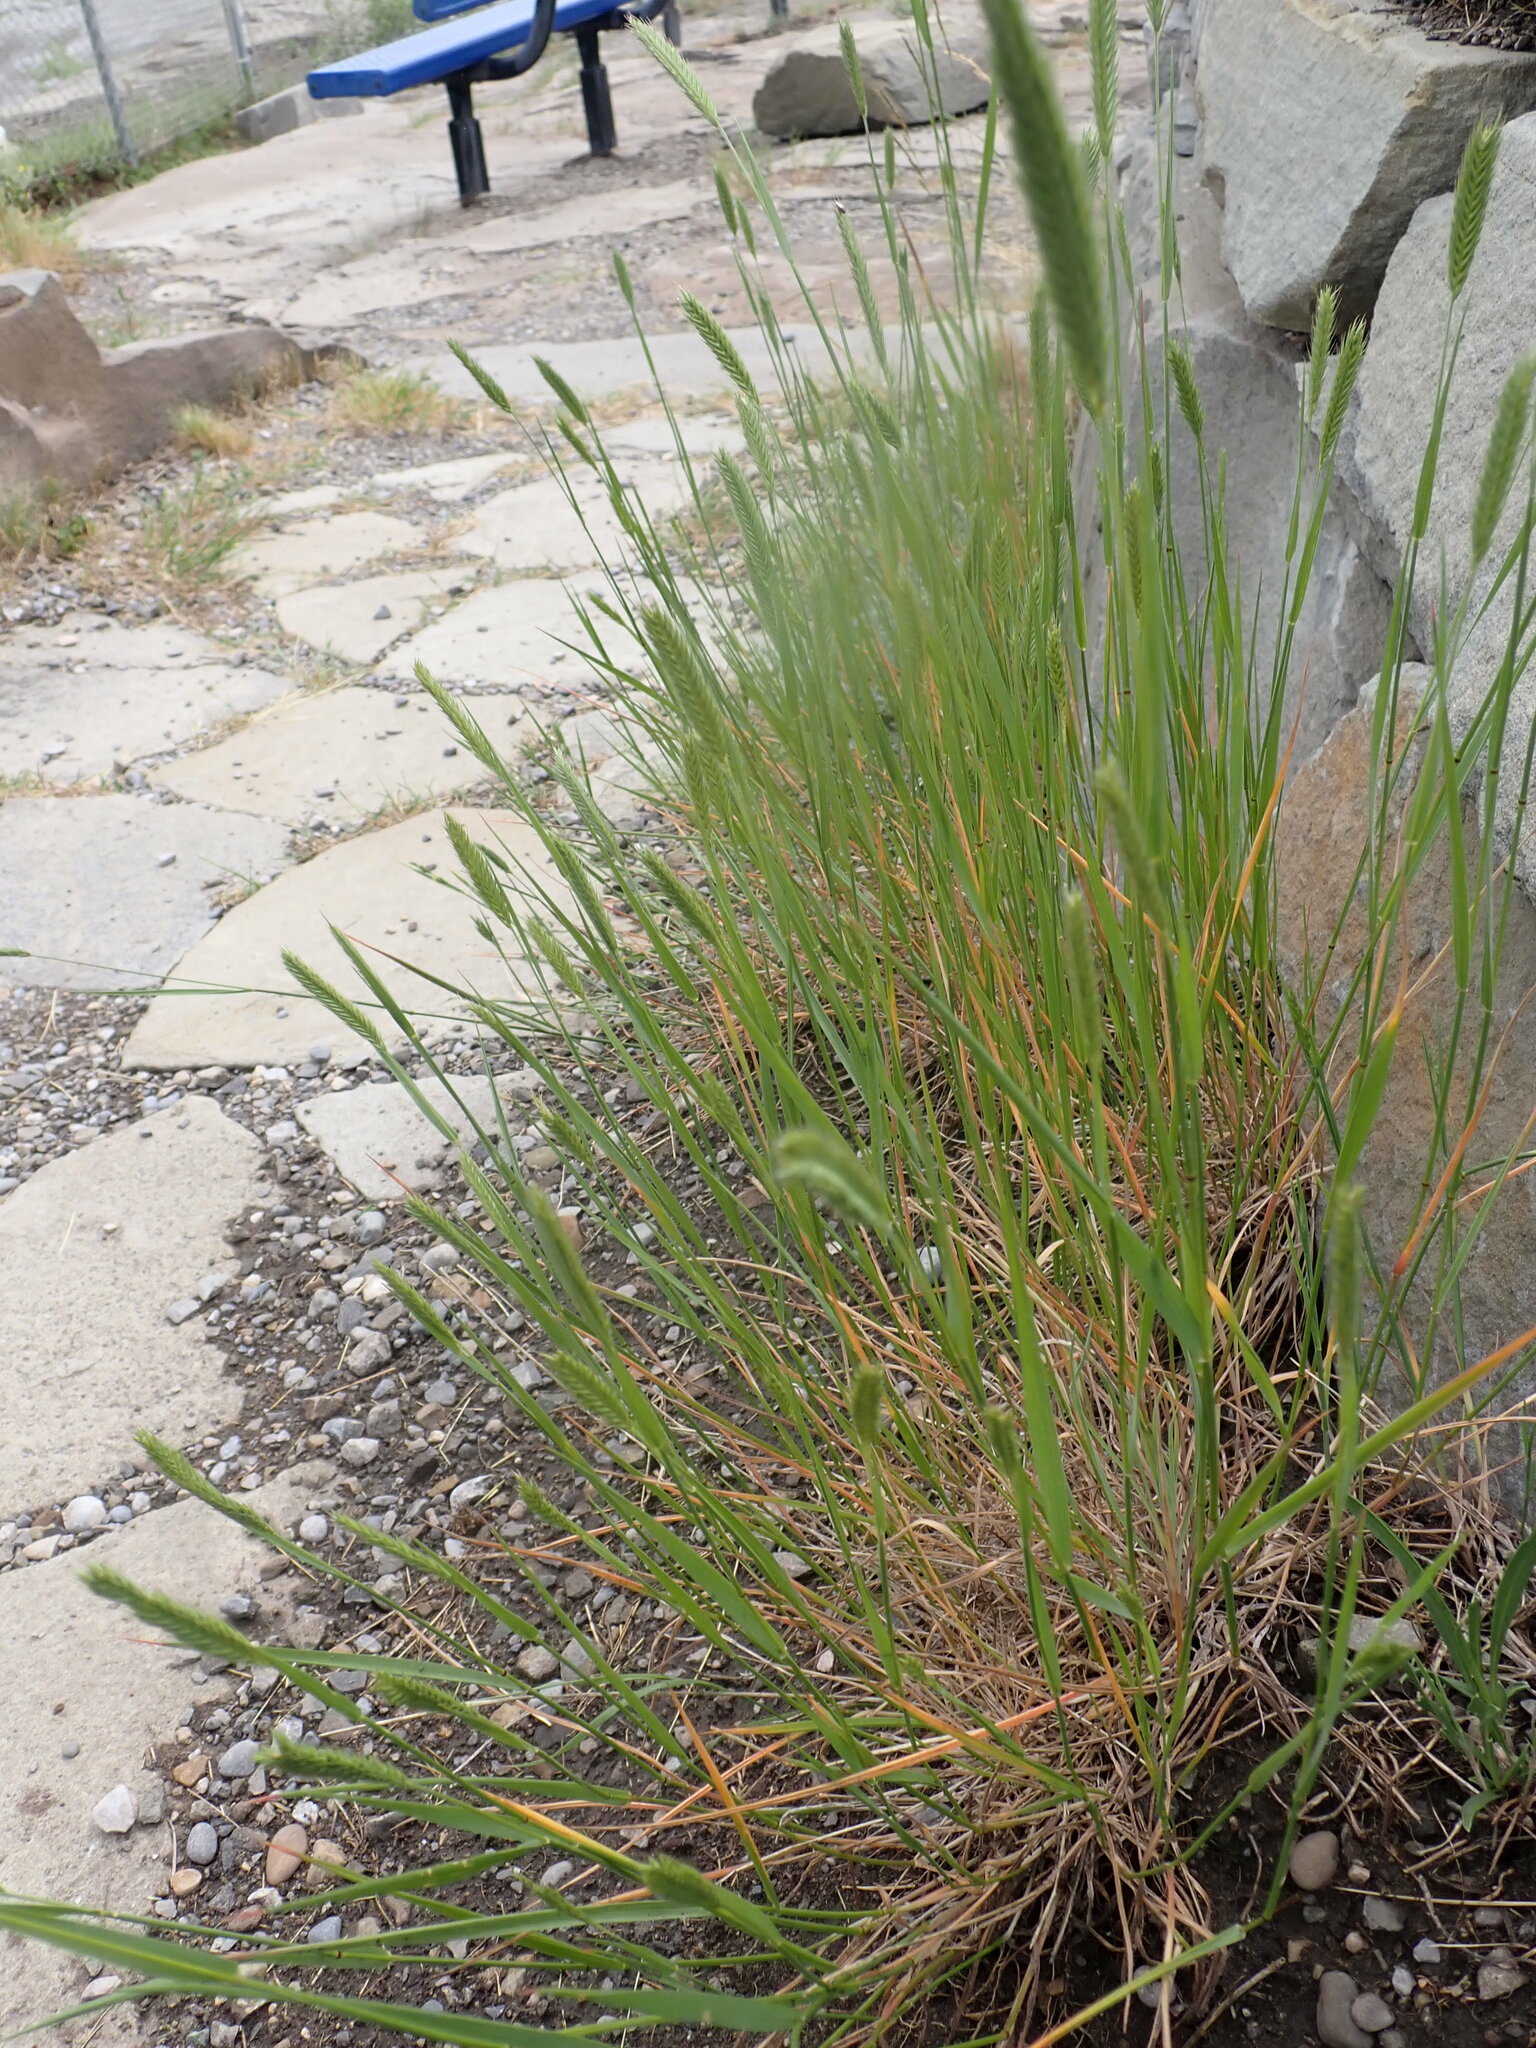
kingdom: Plantae
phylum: Tracheophyta
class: Liliopsida
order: Poales
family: Poaceae
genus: Agropyron
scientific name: Agropyron cristatum
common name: Crested wheatgrass
